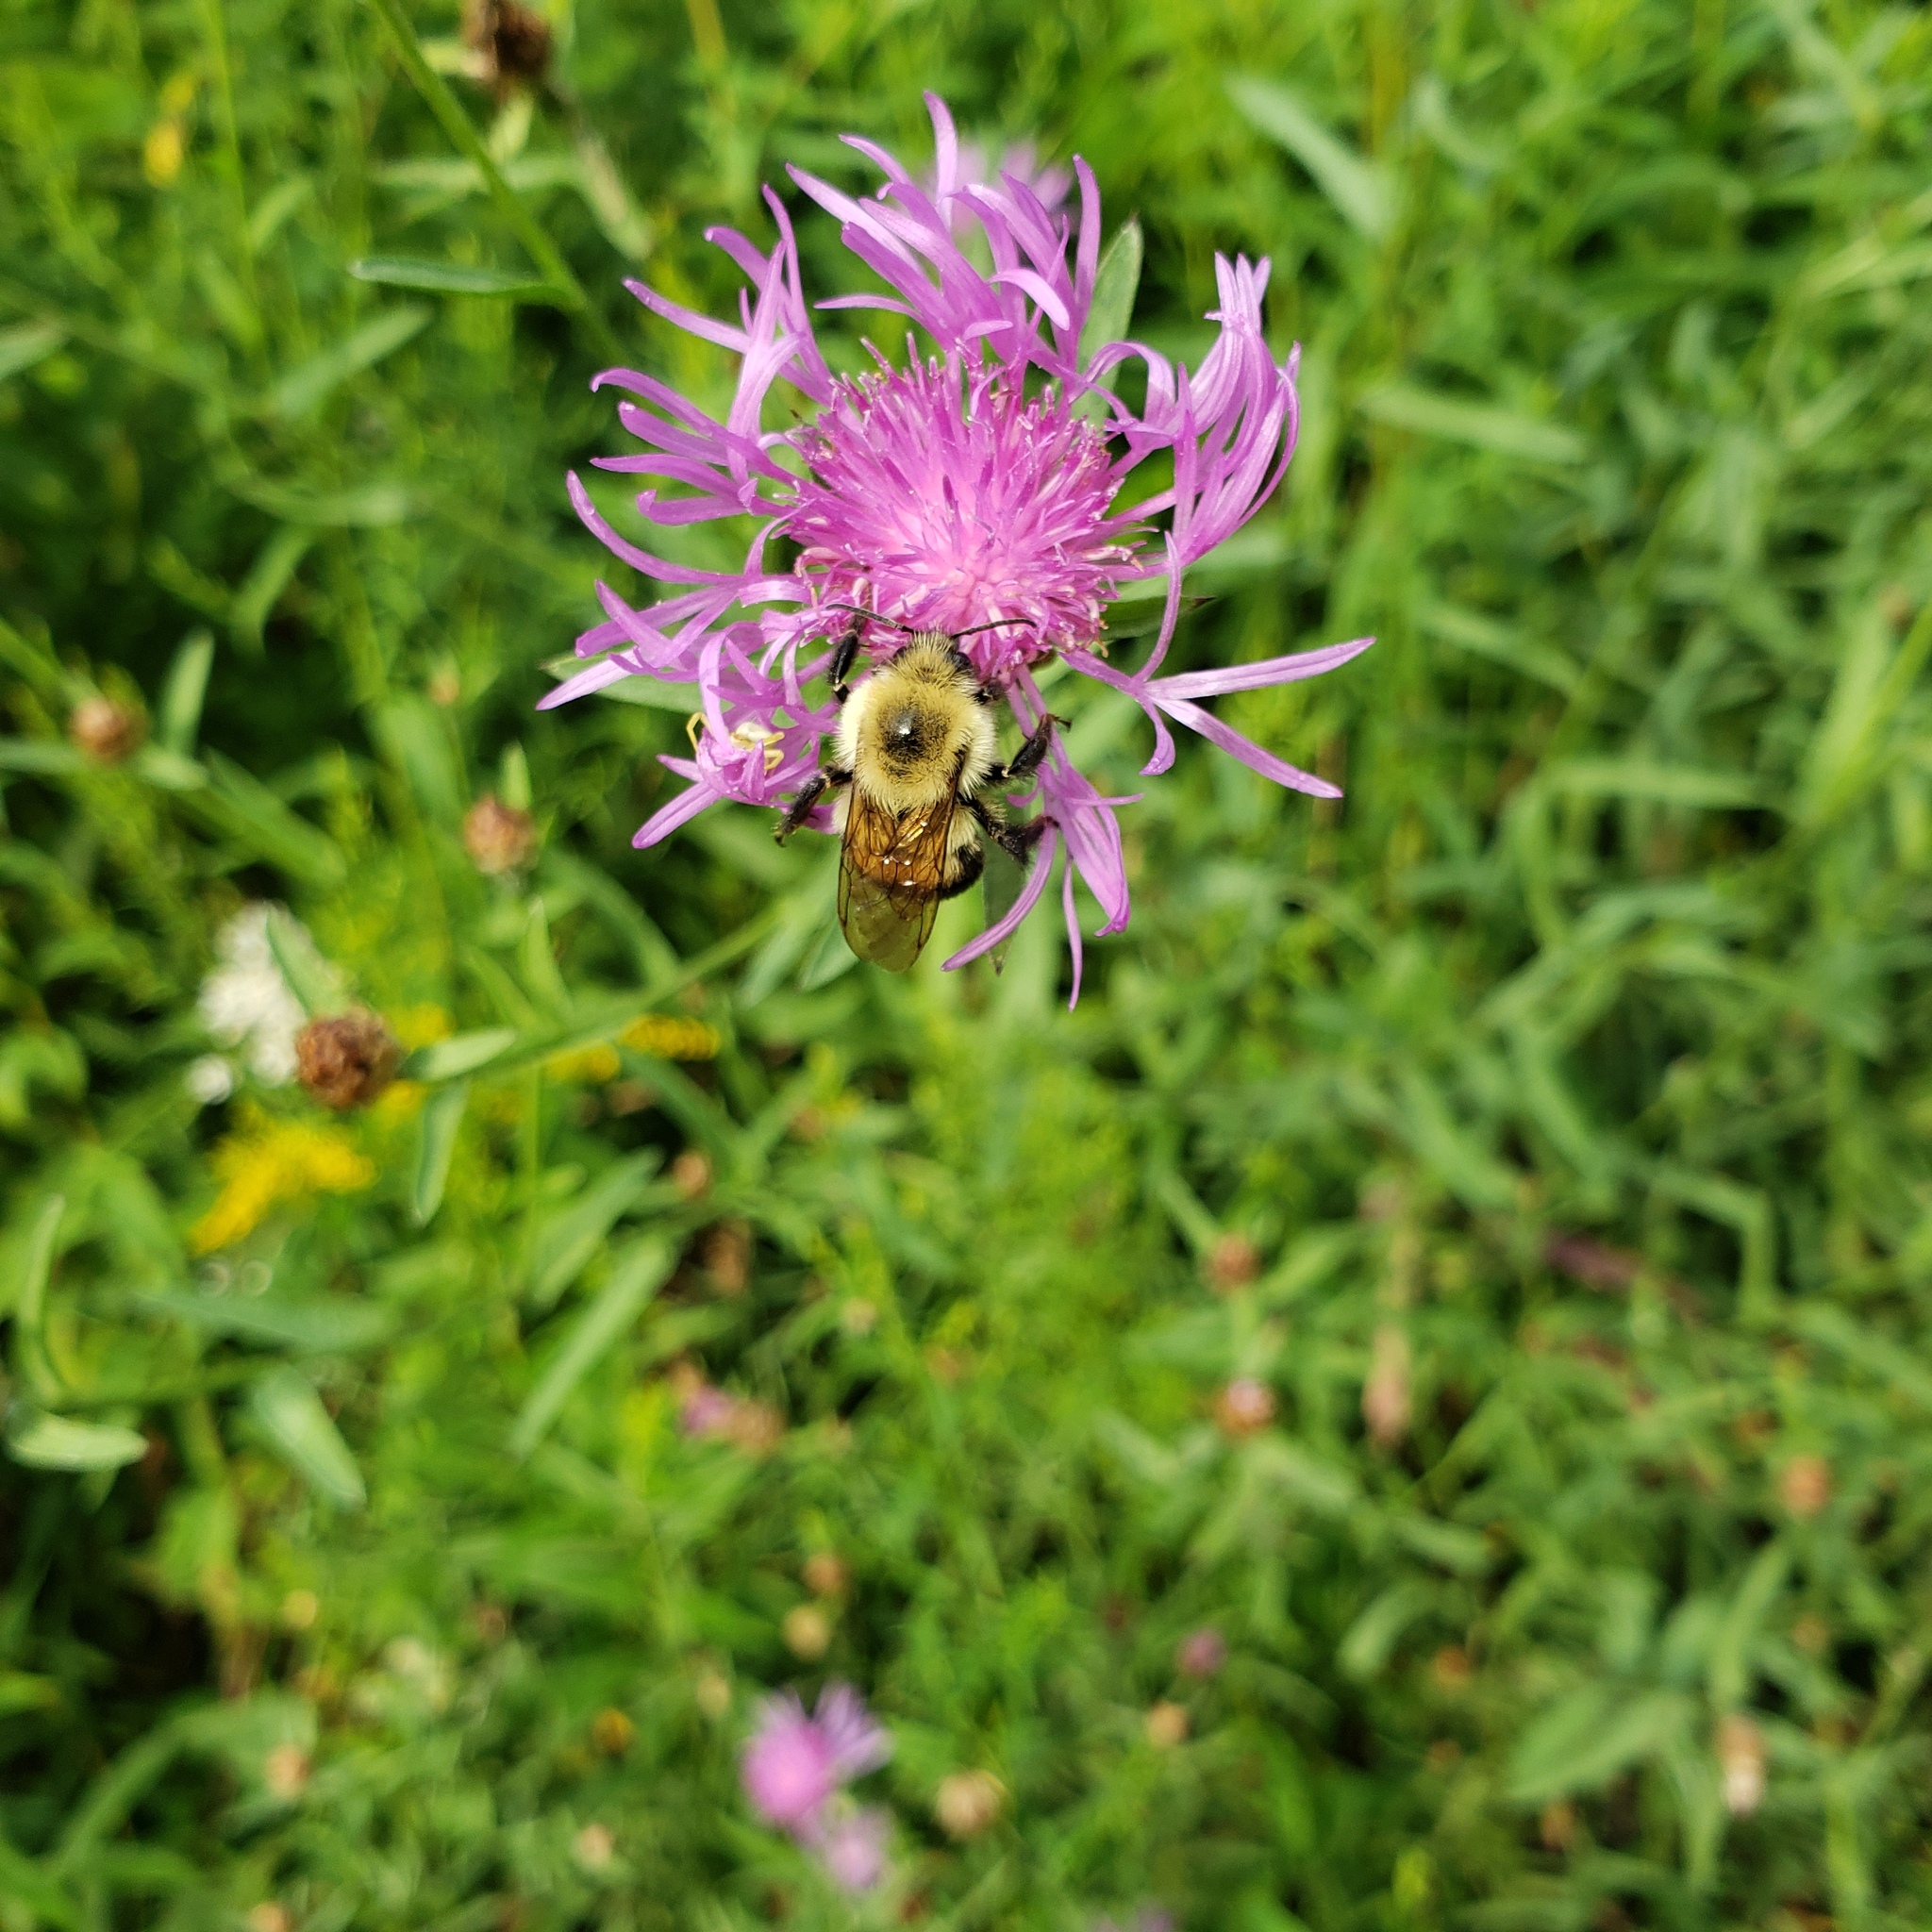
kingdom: Animalia
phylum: Arthropoda
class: Insecta
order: Hymenoptera
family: Apidae
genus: Bombus
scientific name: Bombus bimaculatus
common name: Two-spotted bumble bee
